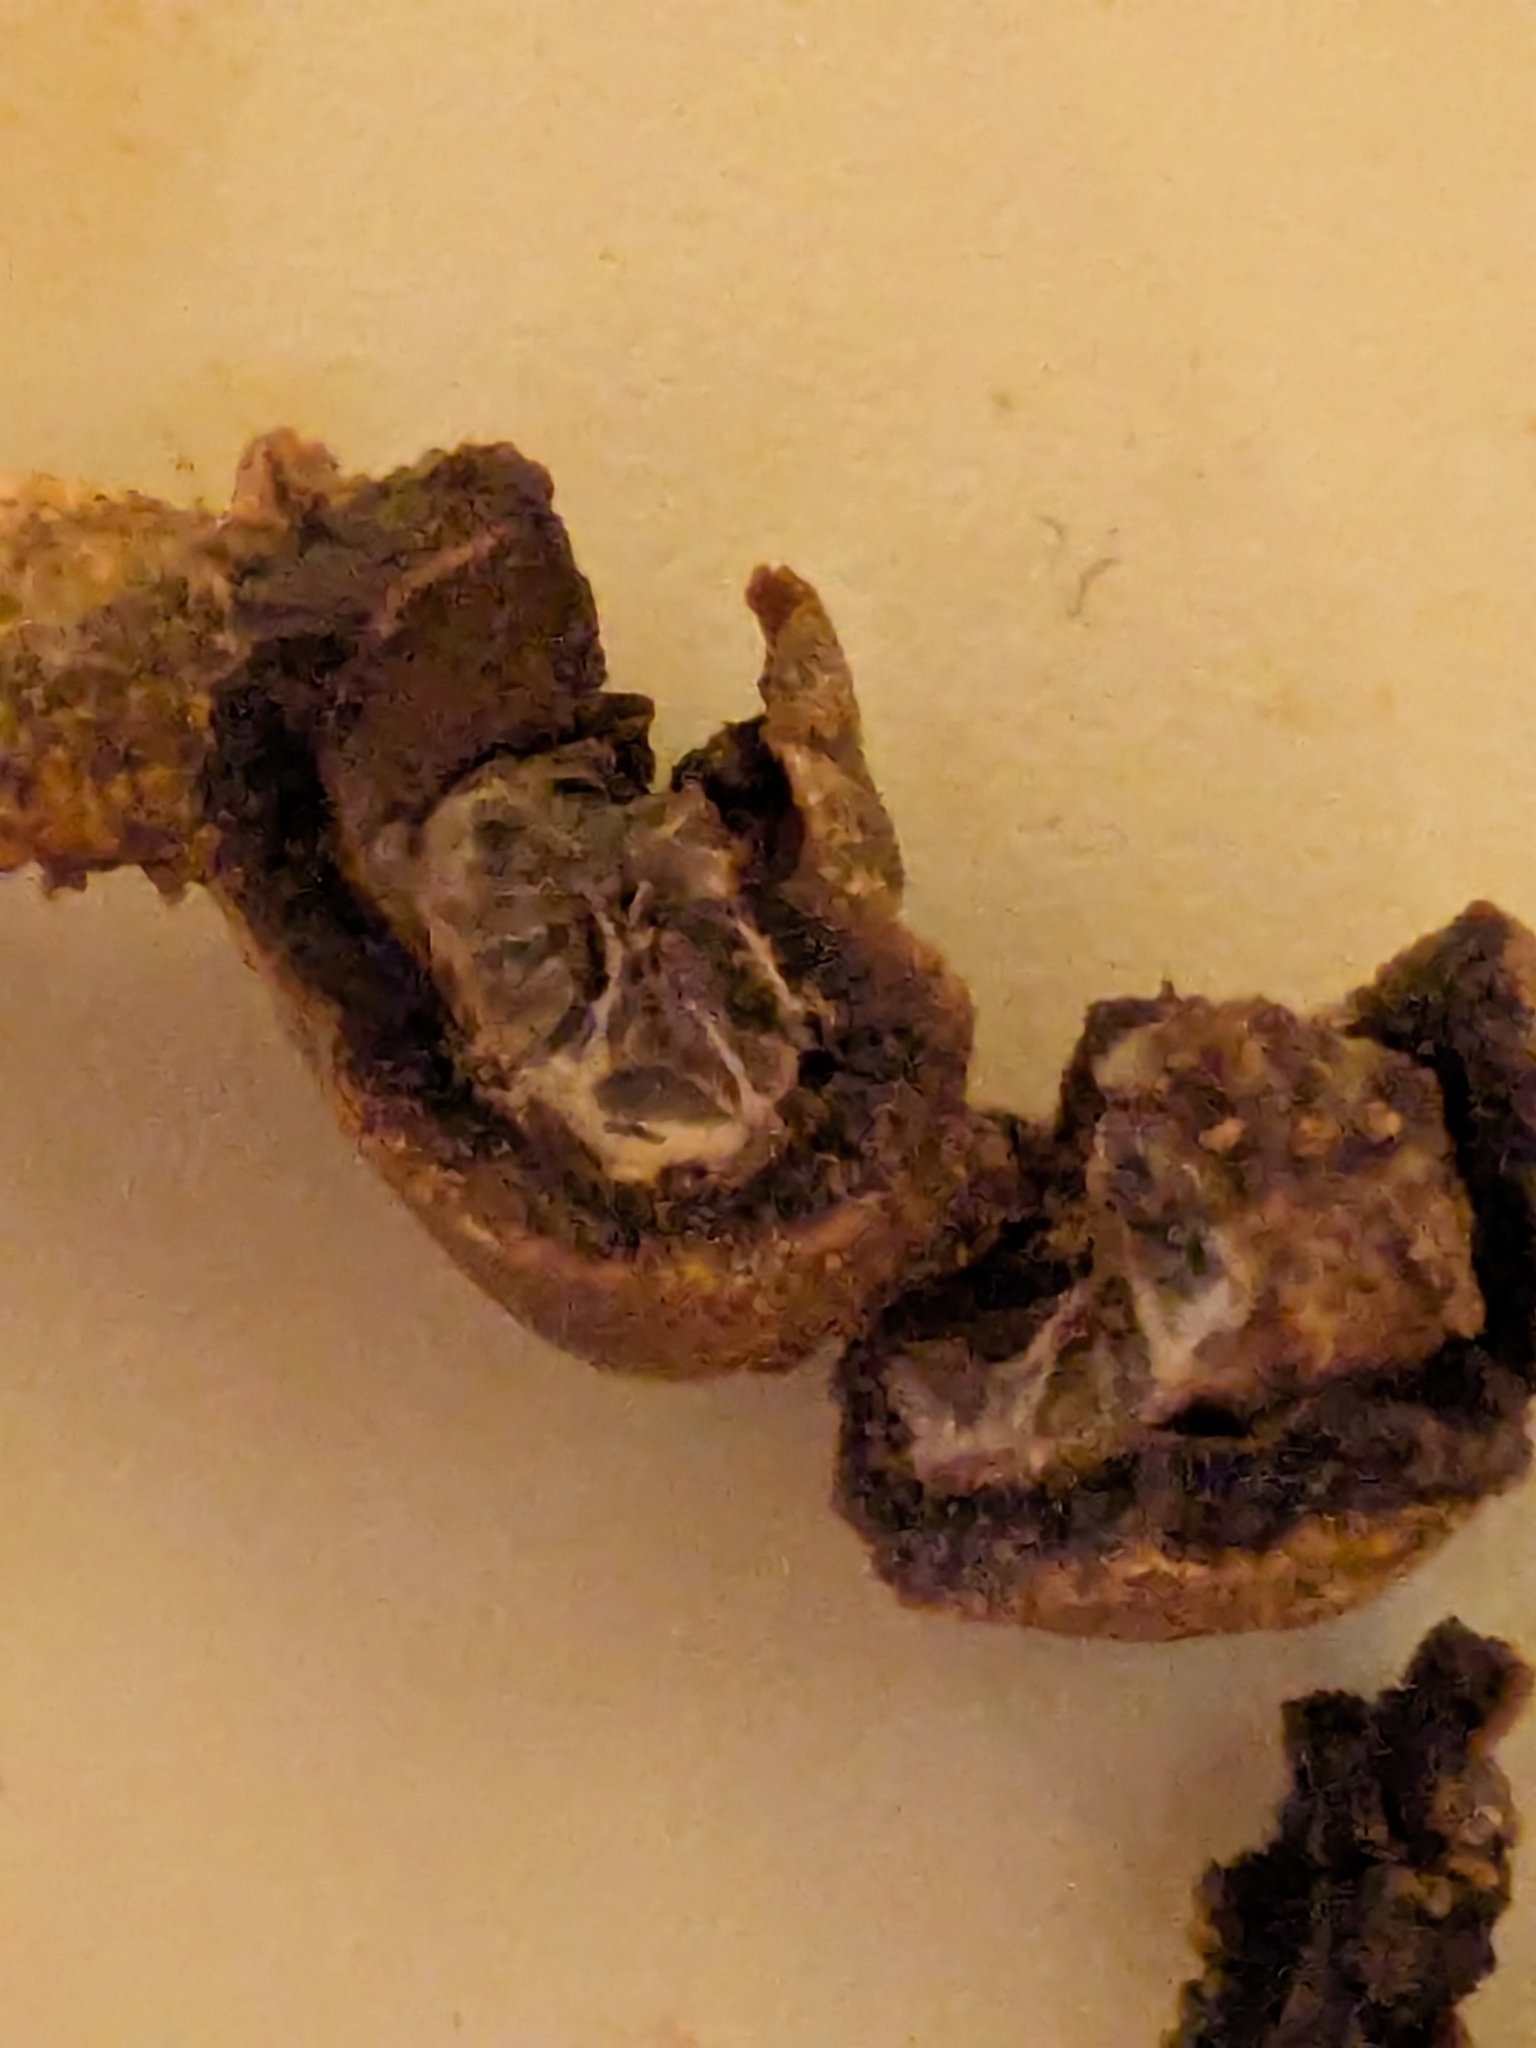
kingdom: Fungi
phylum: Ascomycota
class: Sordariomycetes
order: Hypocreales
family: Ophiocordycipitaceae
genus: Tolypocladium
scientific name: Tolypocladium longisegmentatum
